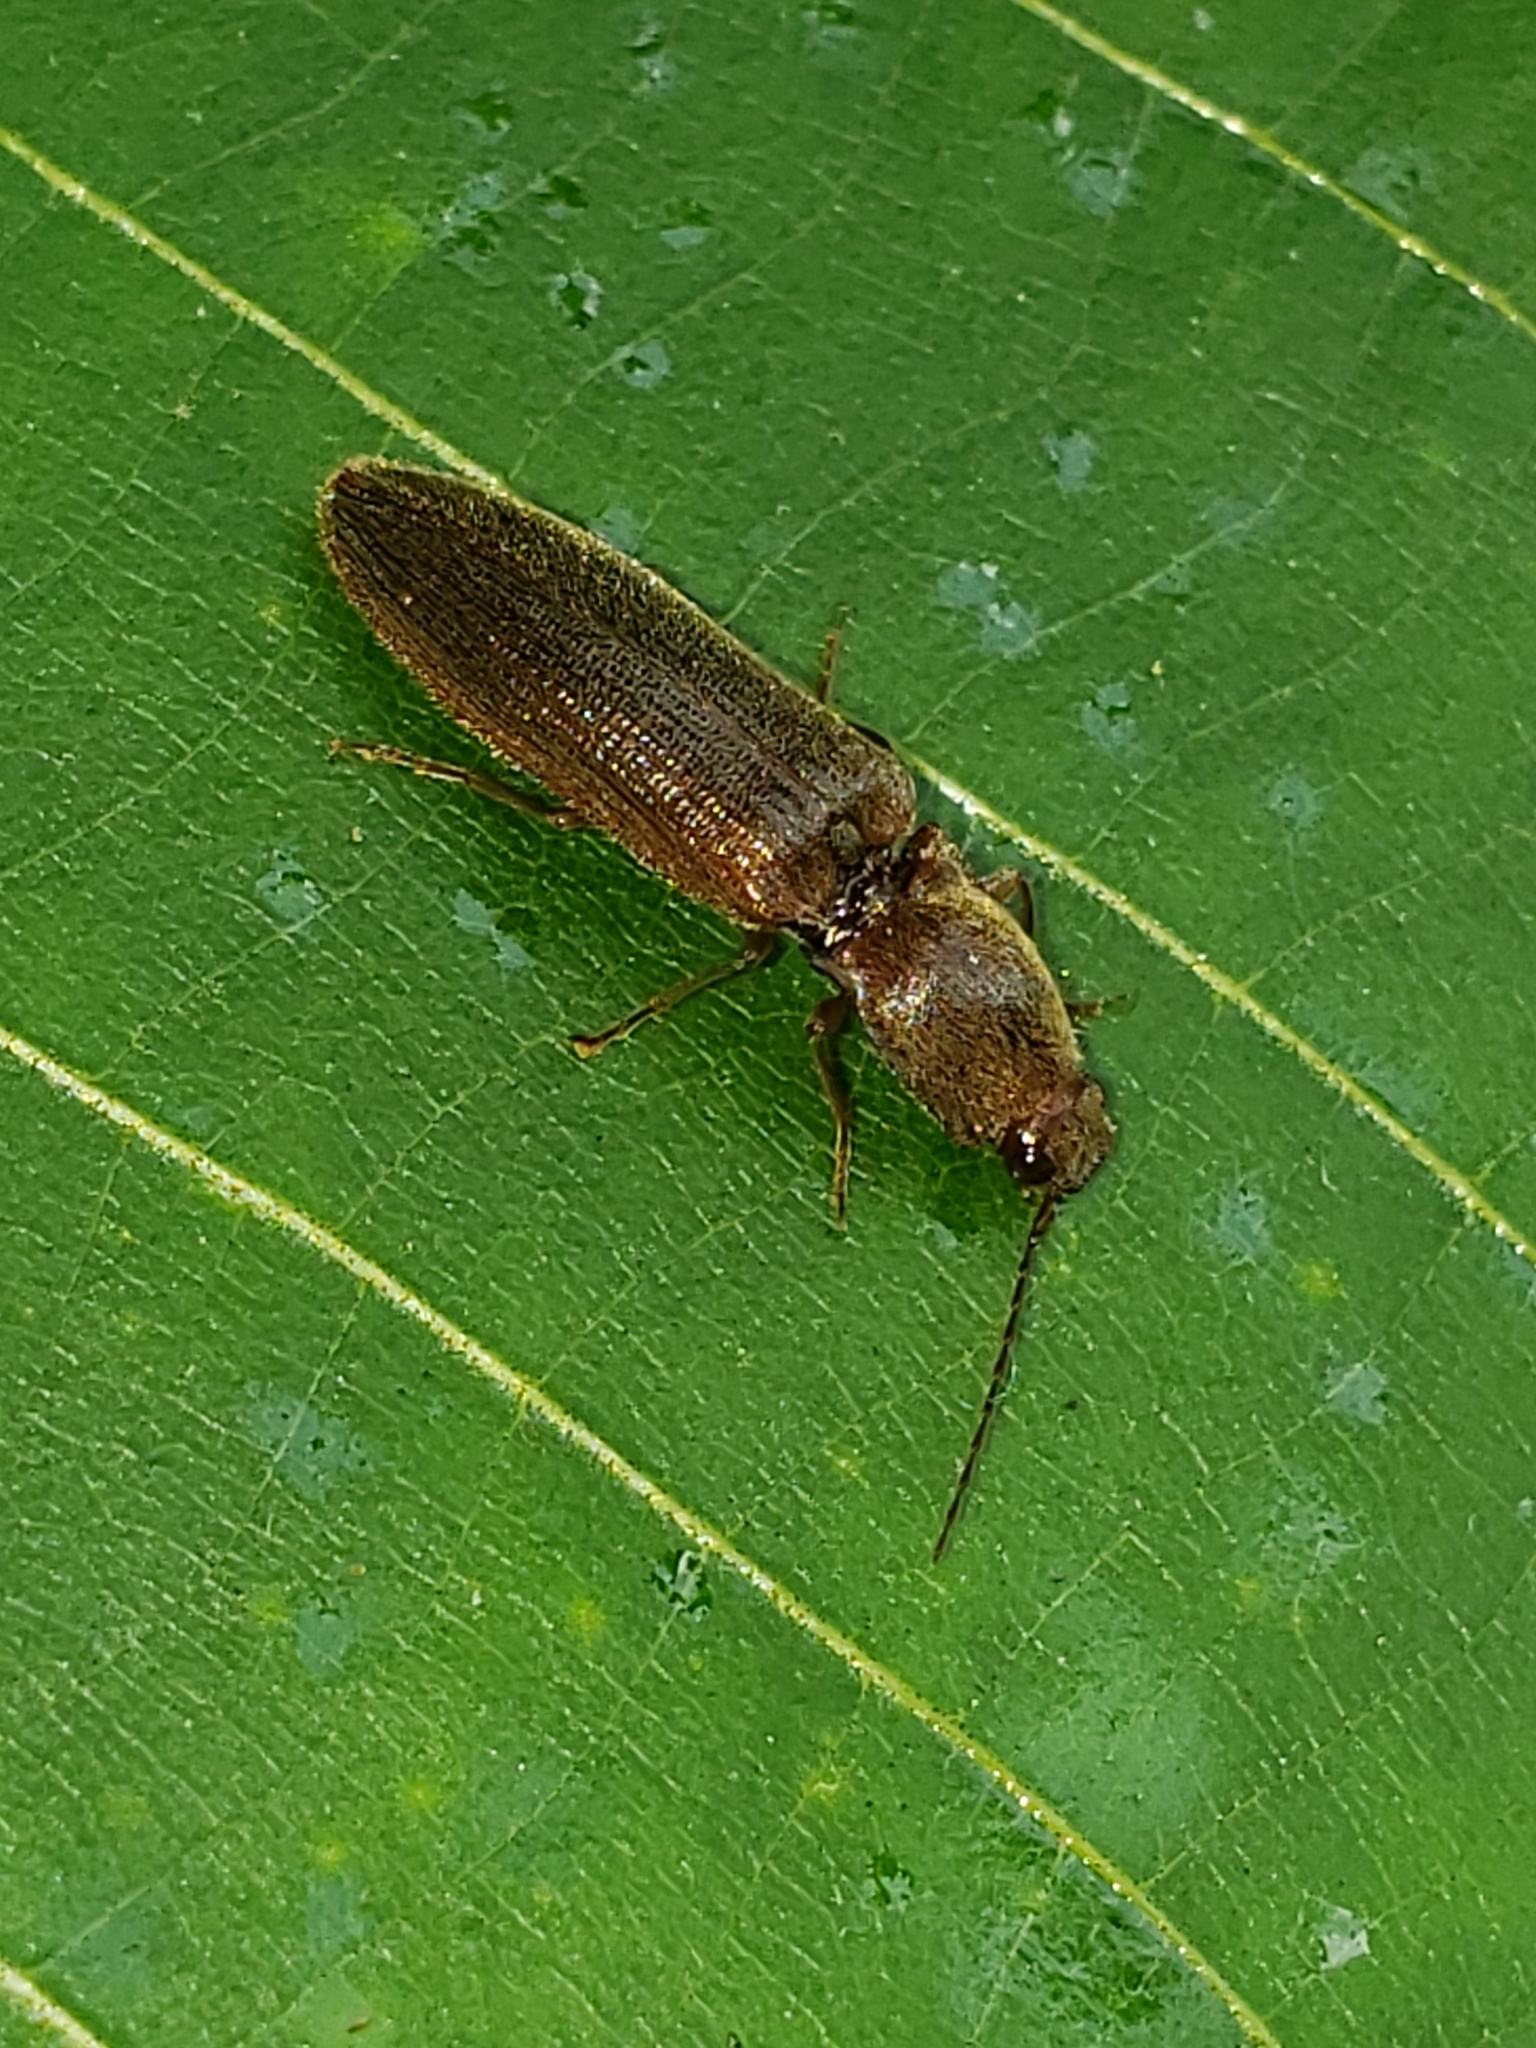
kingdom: Animalia
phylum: Arthropoda
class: Insecta
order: Coleoptera
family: Elateridae
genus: Athous
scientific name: Athous brightwelli
